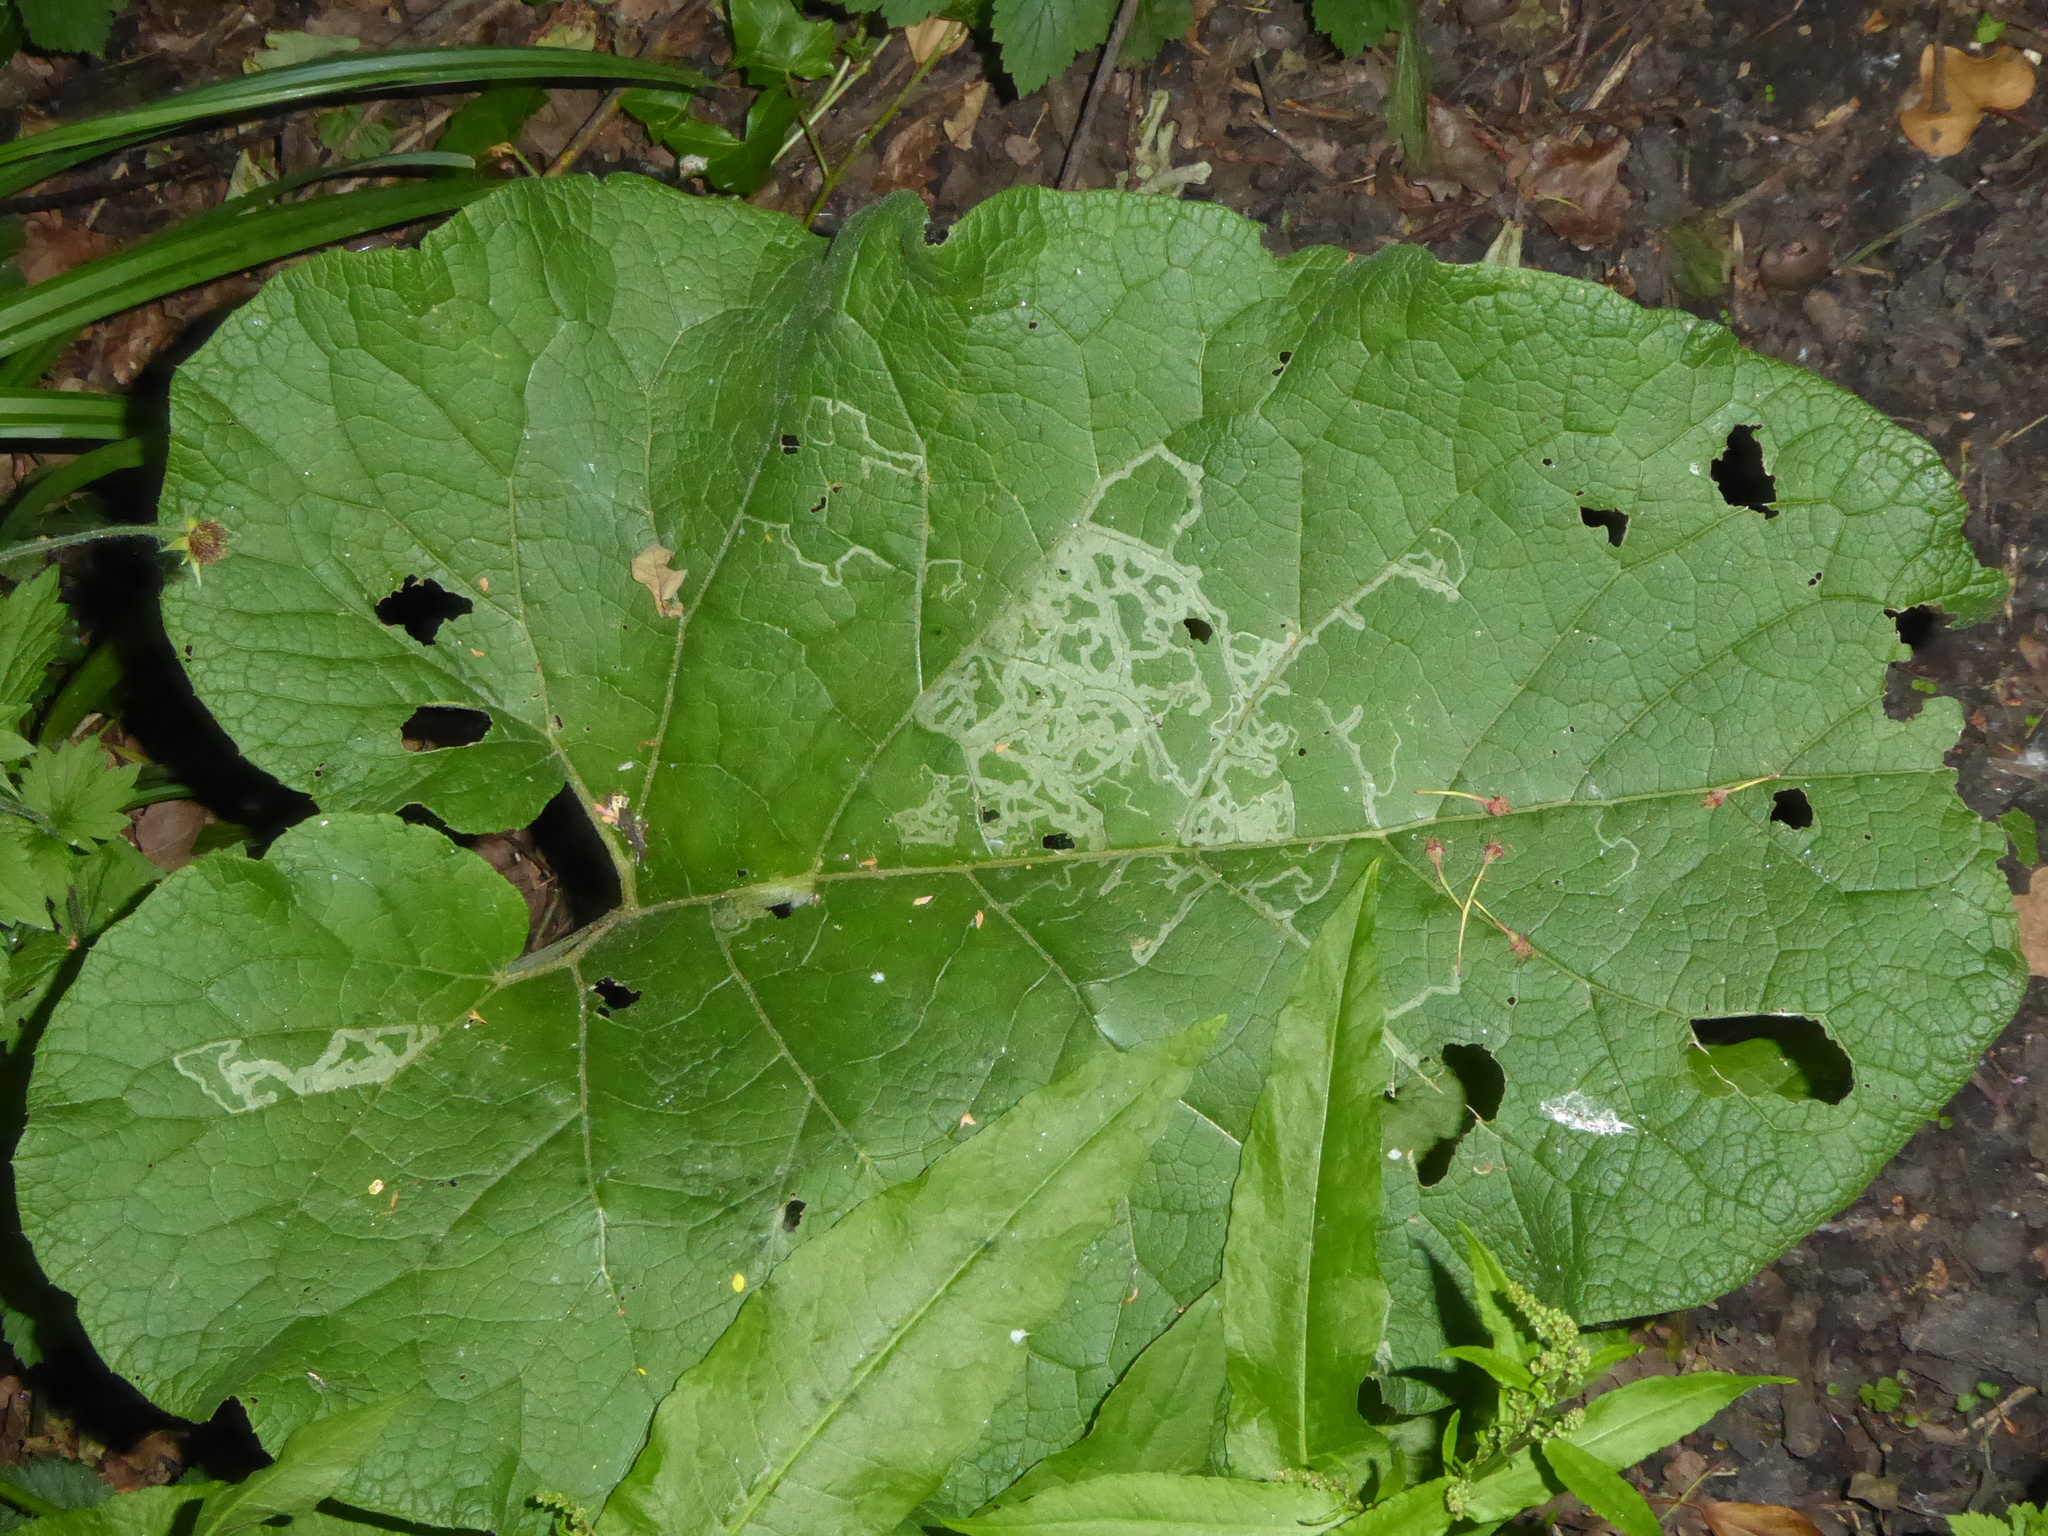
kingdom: Animalia
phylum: Arthropoda
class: Insecta
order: Diptera
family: Agromyzidae
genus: Phytomyza
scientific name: Phytomyza lappae
